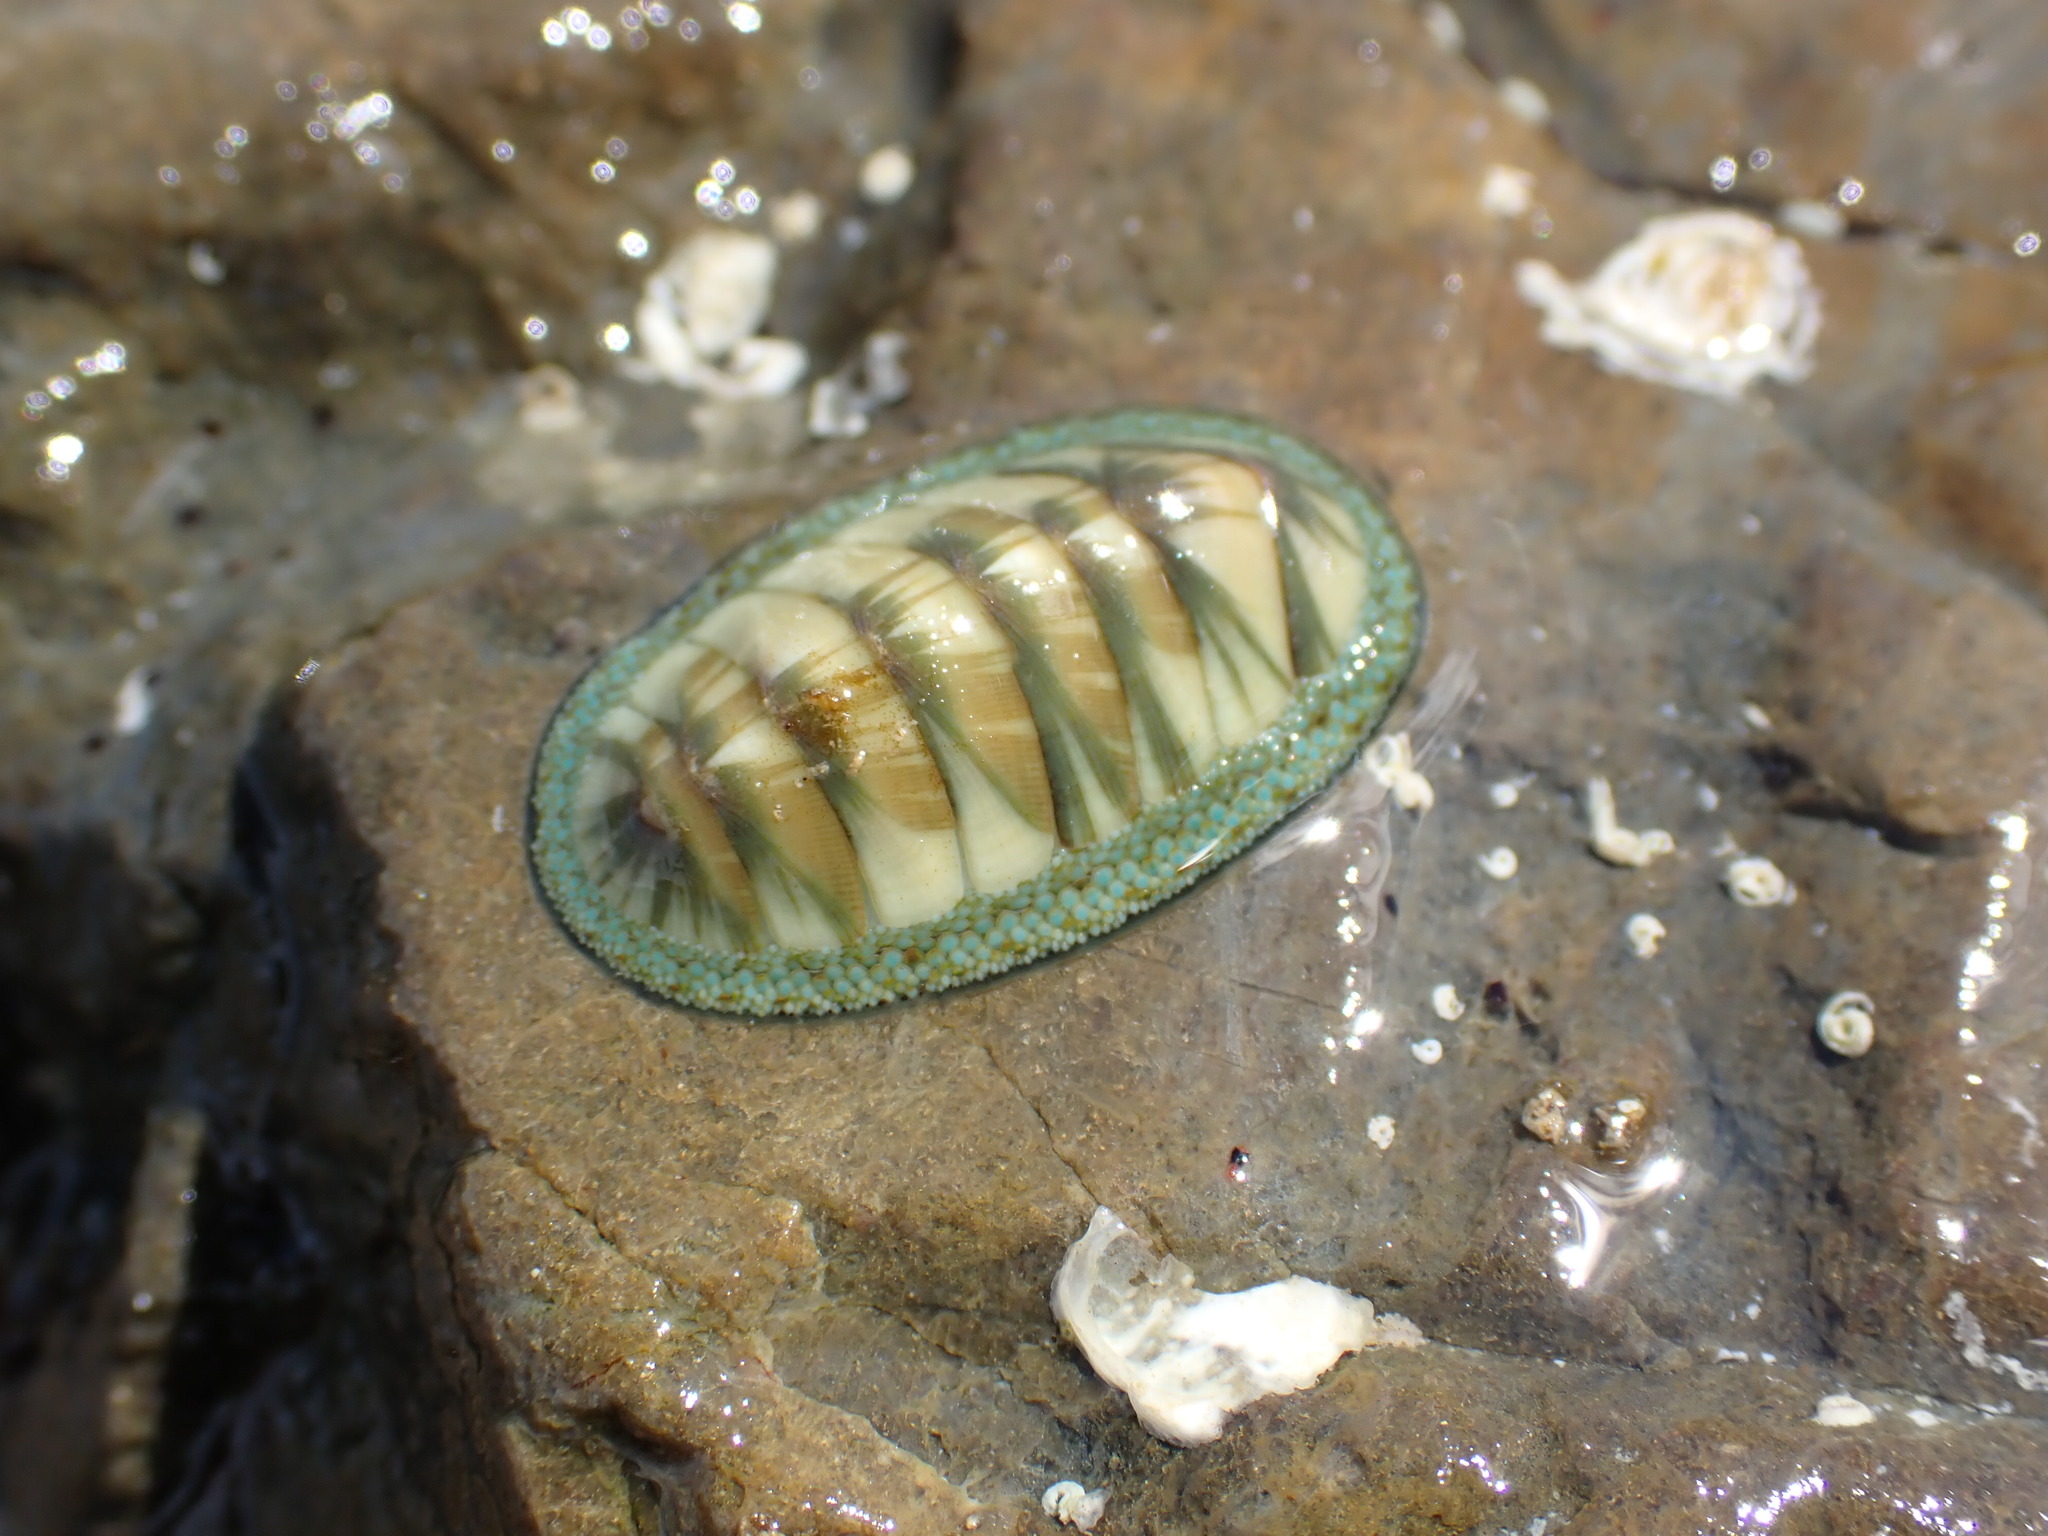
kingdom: Animalia
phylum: Mollusca
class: Polyplacophora
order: Chitonida
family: Chitonidae
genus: Chiton
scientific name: Chiton glaucus
